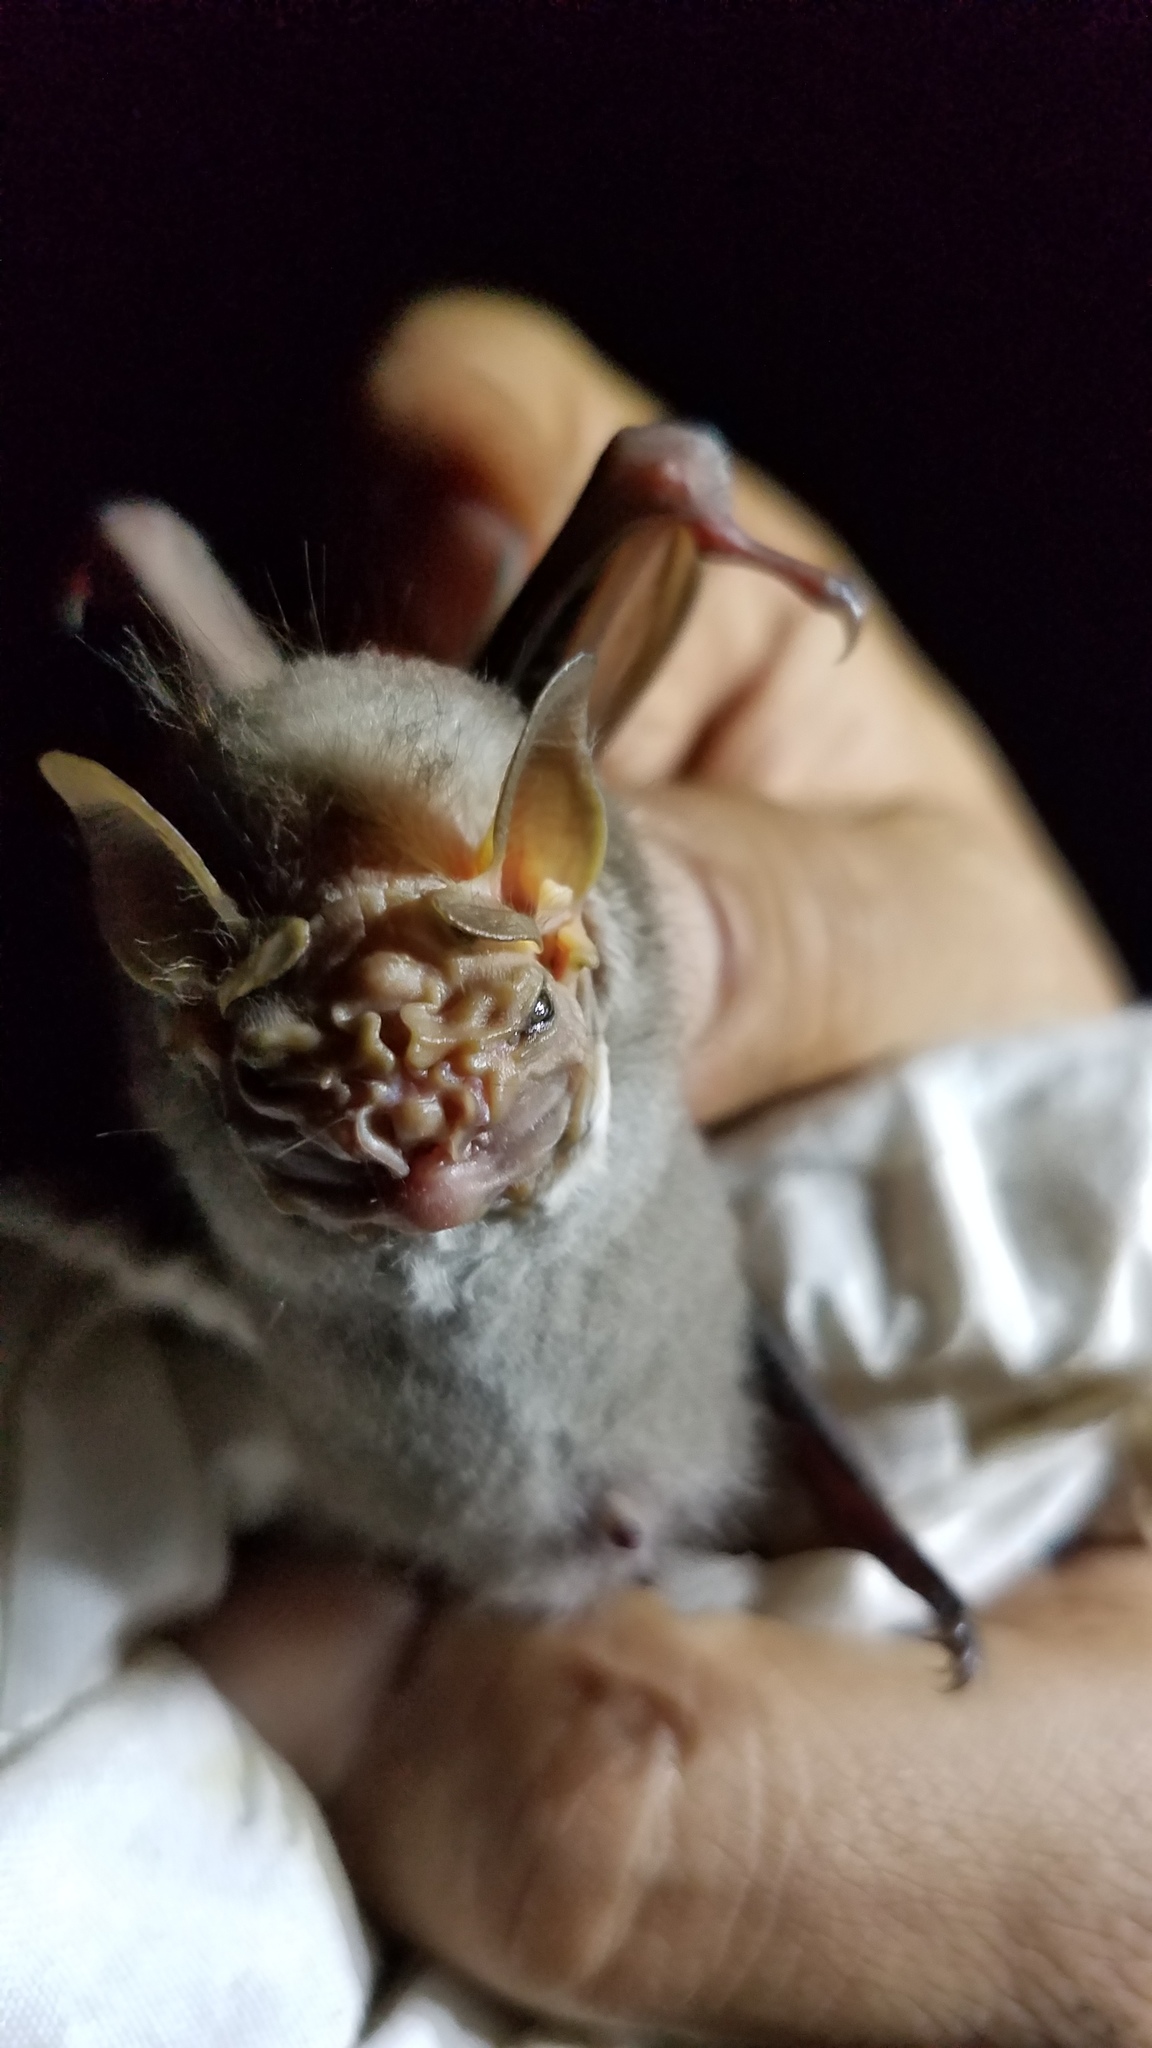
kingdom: Animalia
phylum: Chordata
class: Mammalia
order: Chiroptera
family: Phyllostomidae
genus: Centurio
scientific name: Centurio senex
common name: Wrinkle-faced bat
